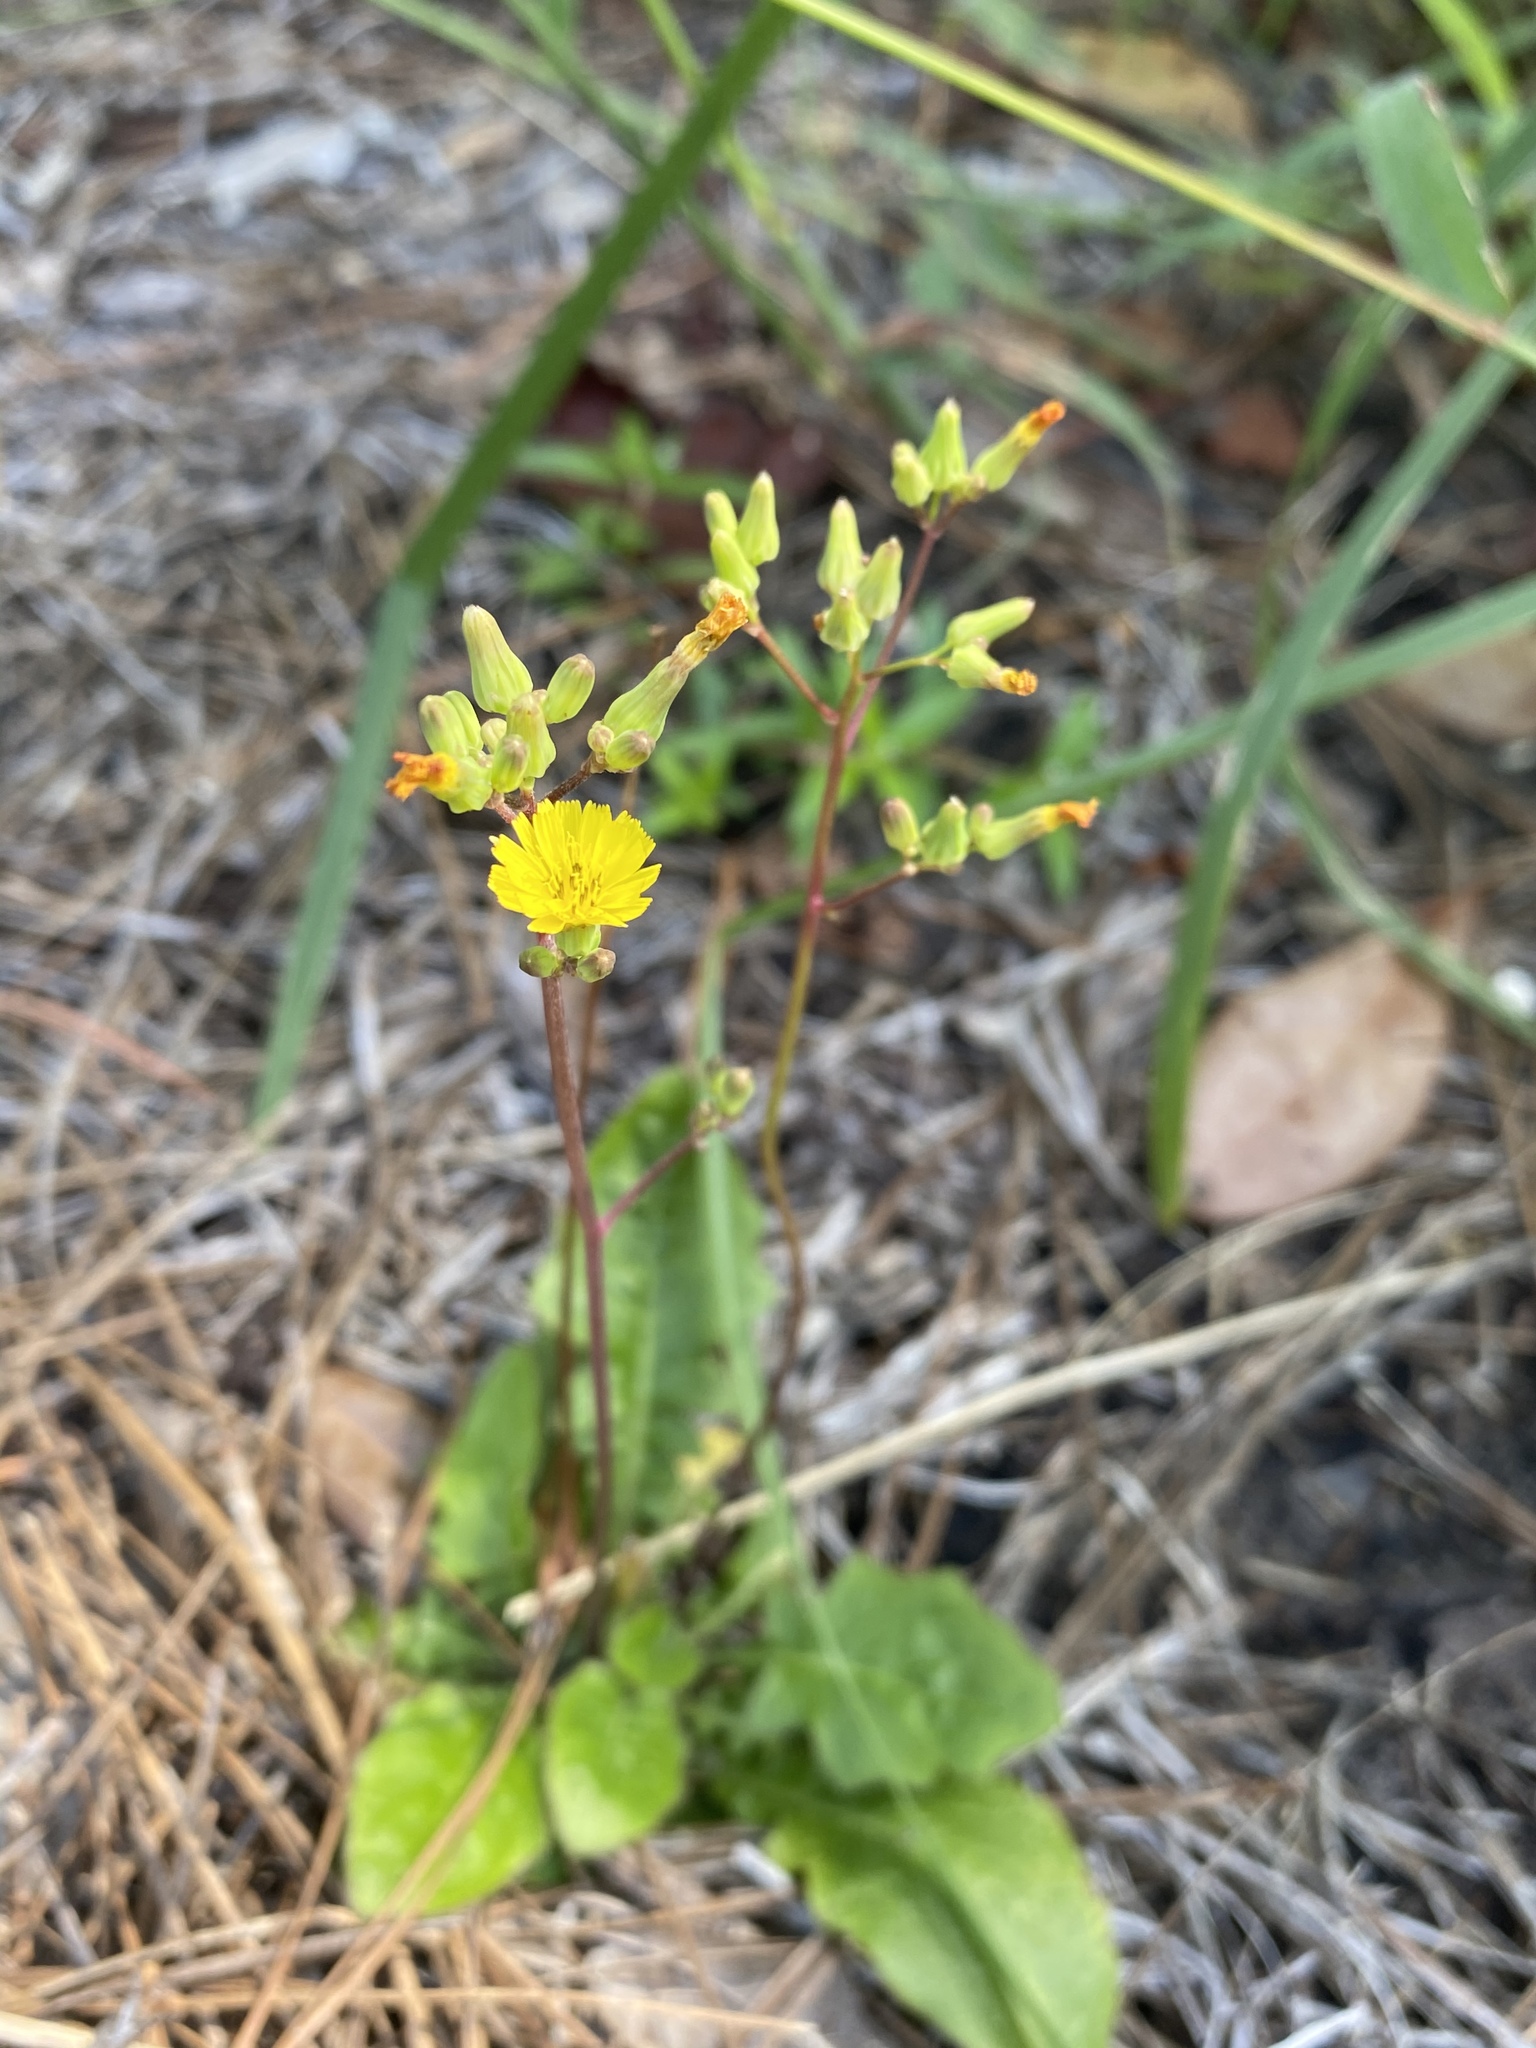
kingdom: Plantae
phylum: Tracheophyta
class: Magnoliopsida
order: Asterales
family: Asteraceae
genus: Youngia
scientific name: Youngia japonica
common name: Oriental false hawksbeard
